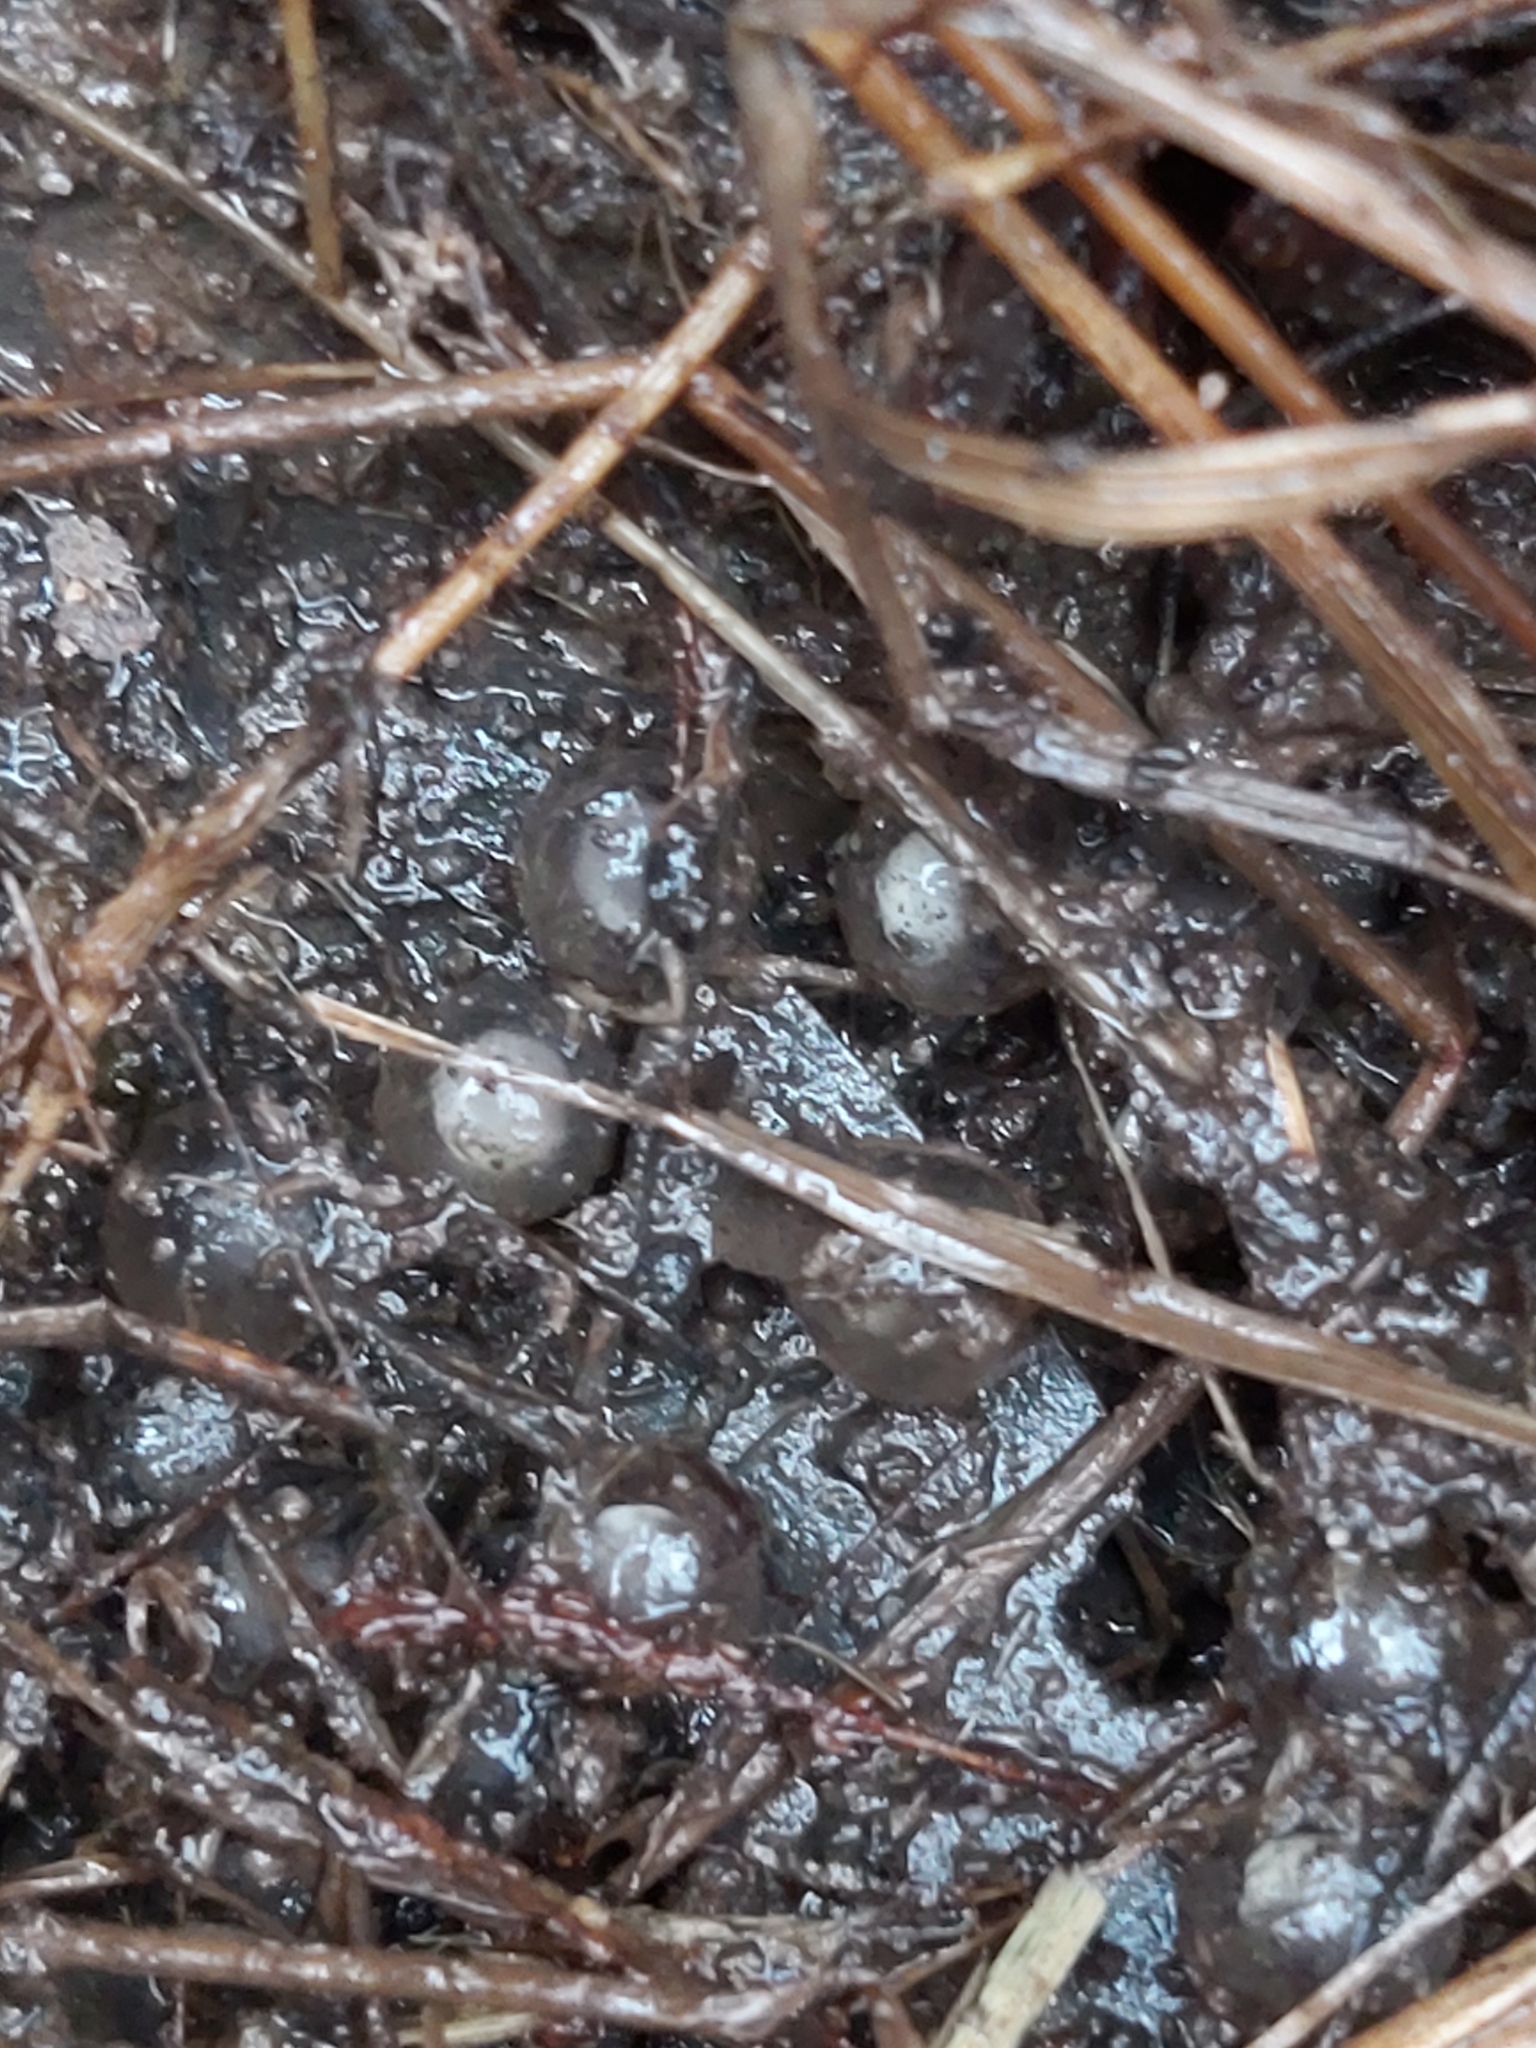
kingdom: Animalia
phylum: Chordata
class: Amphibia
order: Anura
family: Myobatrachidae
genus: Pseudophryne
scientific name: Pseudophryne australis
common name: Red-crowned toadlet
